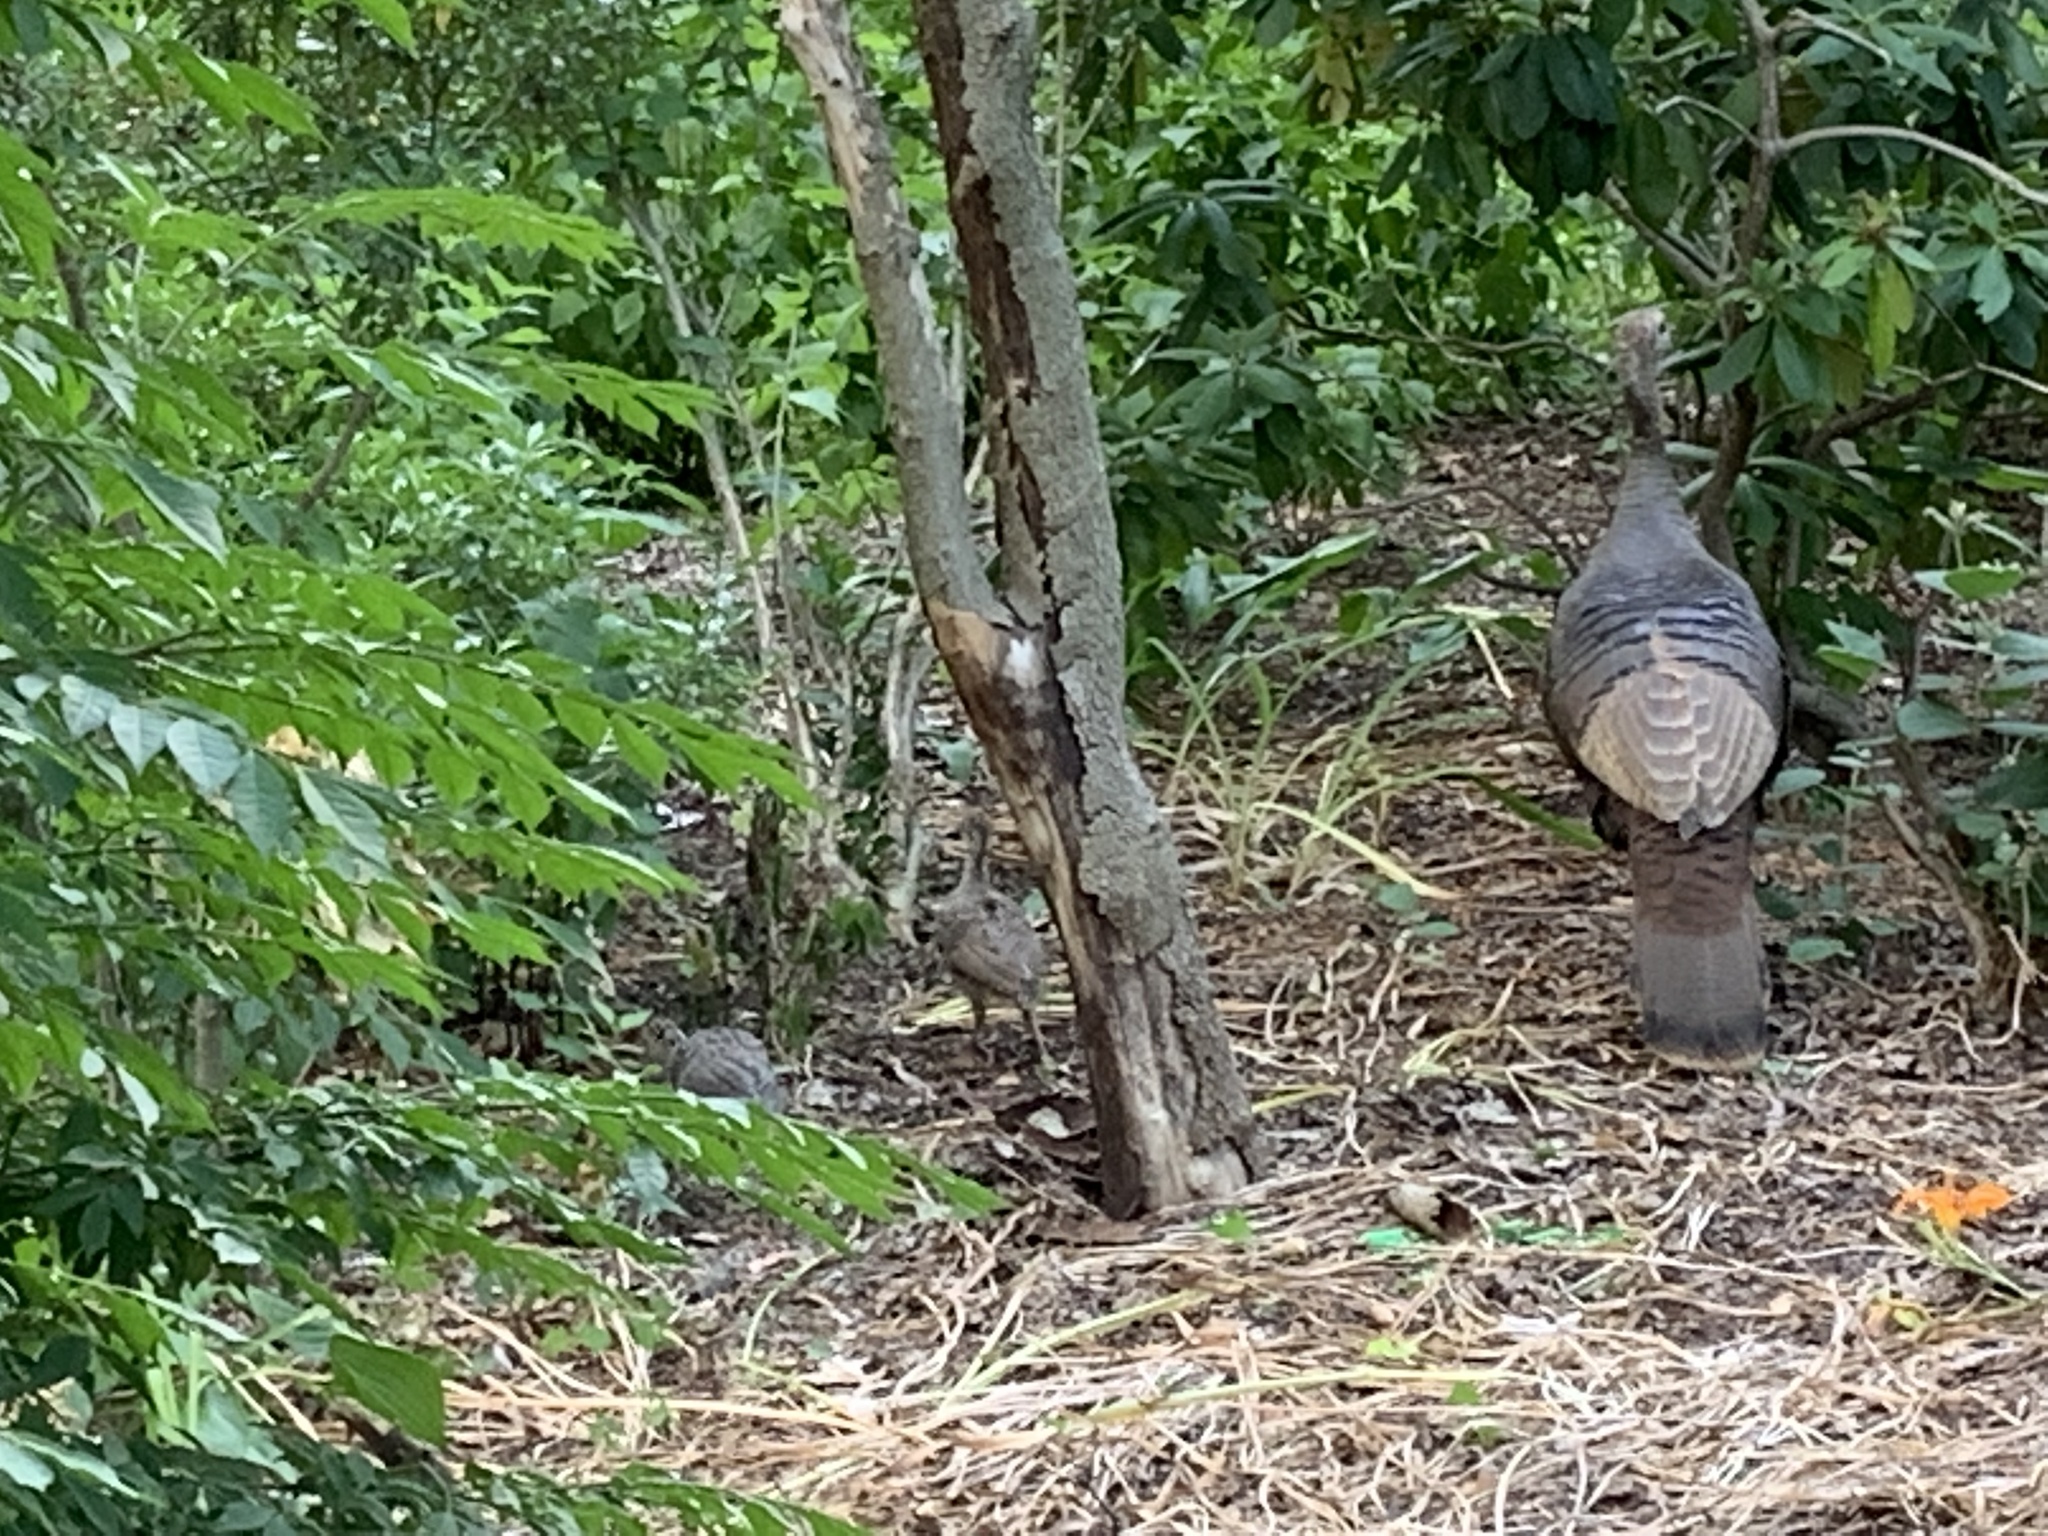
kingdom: Animalia
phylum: Chordata
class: Aves
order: Galliformes
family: Phasianidae
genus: Meleagris
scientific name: Meleagris gallopavo
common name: Wild turkey
